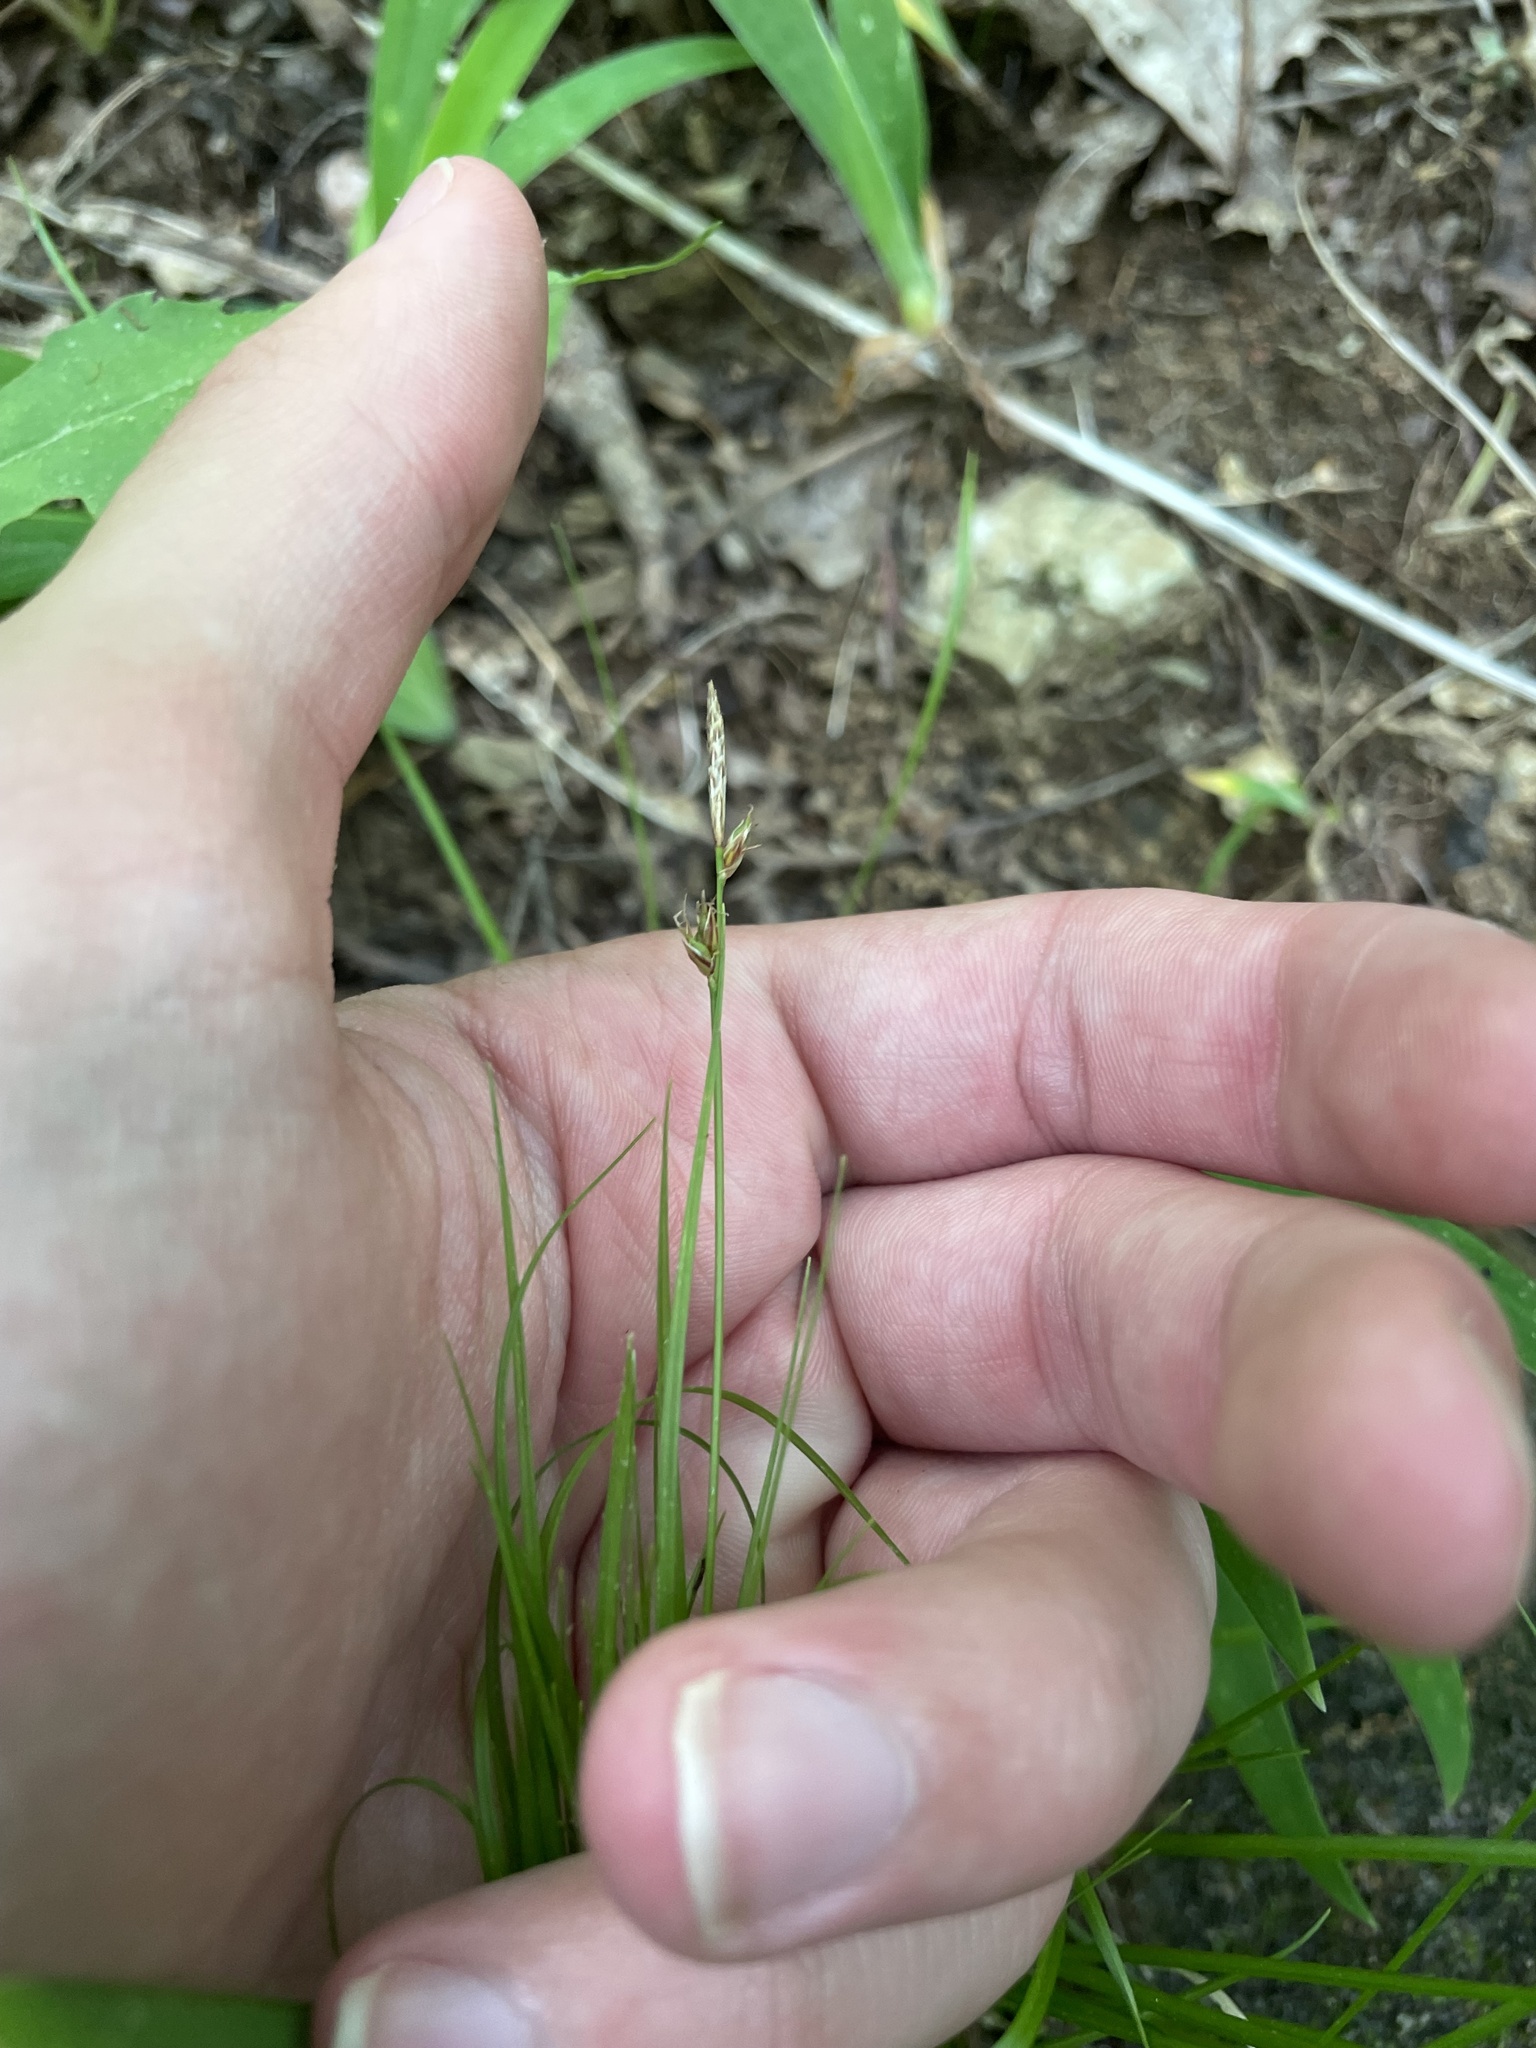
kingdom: Plantae
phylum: Tracheophyta
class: Liliopsida
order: Poales
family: Cyperaceae
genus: Carex
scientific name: Carex communis
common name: Colonial oak sedge
